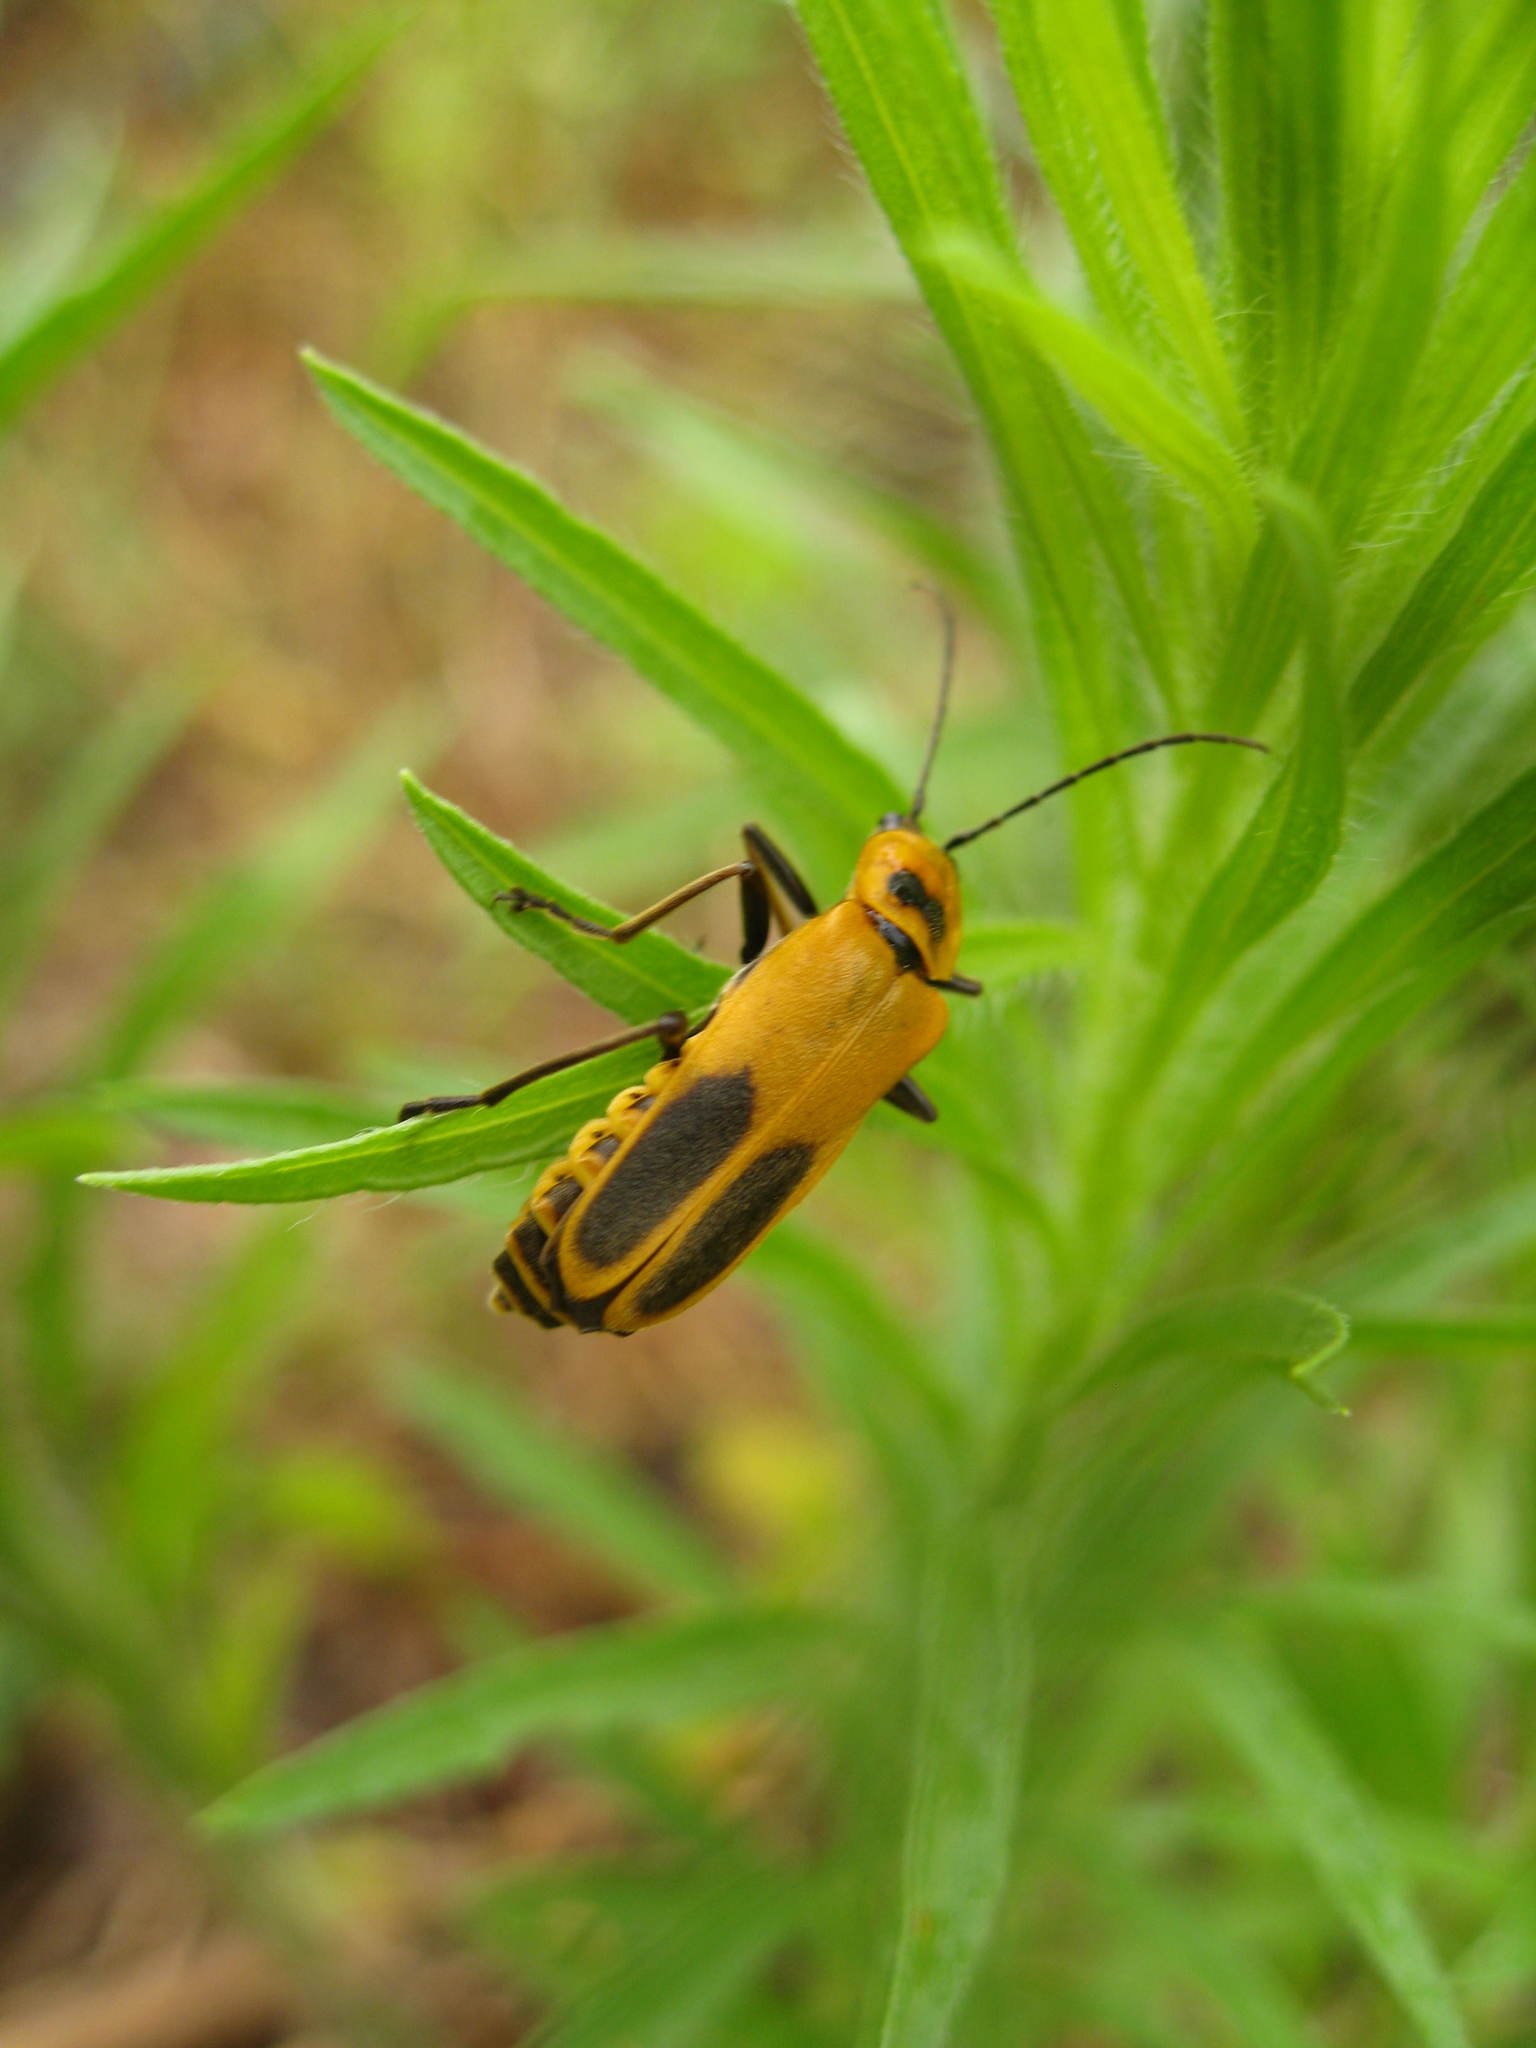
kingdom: Animalia
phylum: Arthropoda
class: Insecta
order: Coleoptera
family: Cantharidae
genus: Chauliognathus
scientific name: Chauliognathus pensylvanicus
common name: Goldenrod soldier beetle
